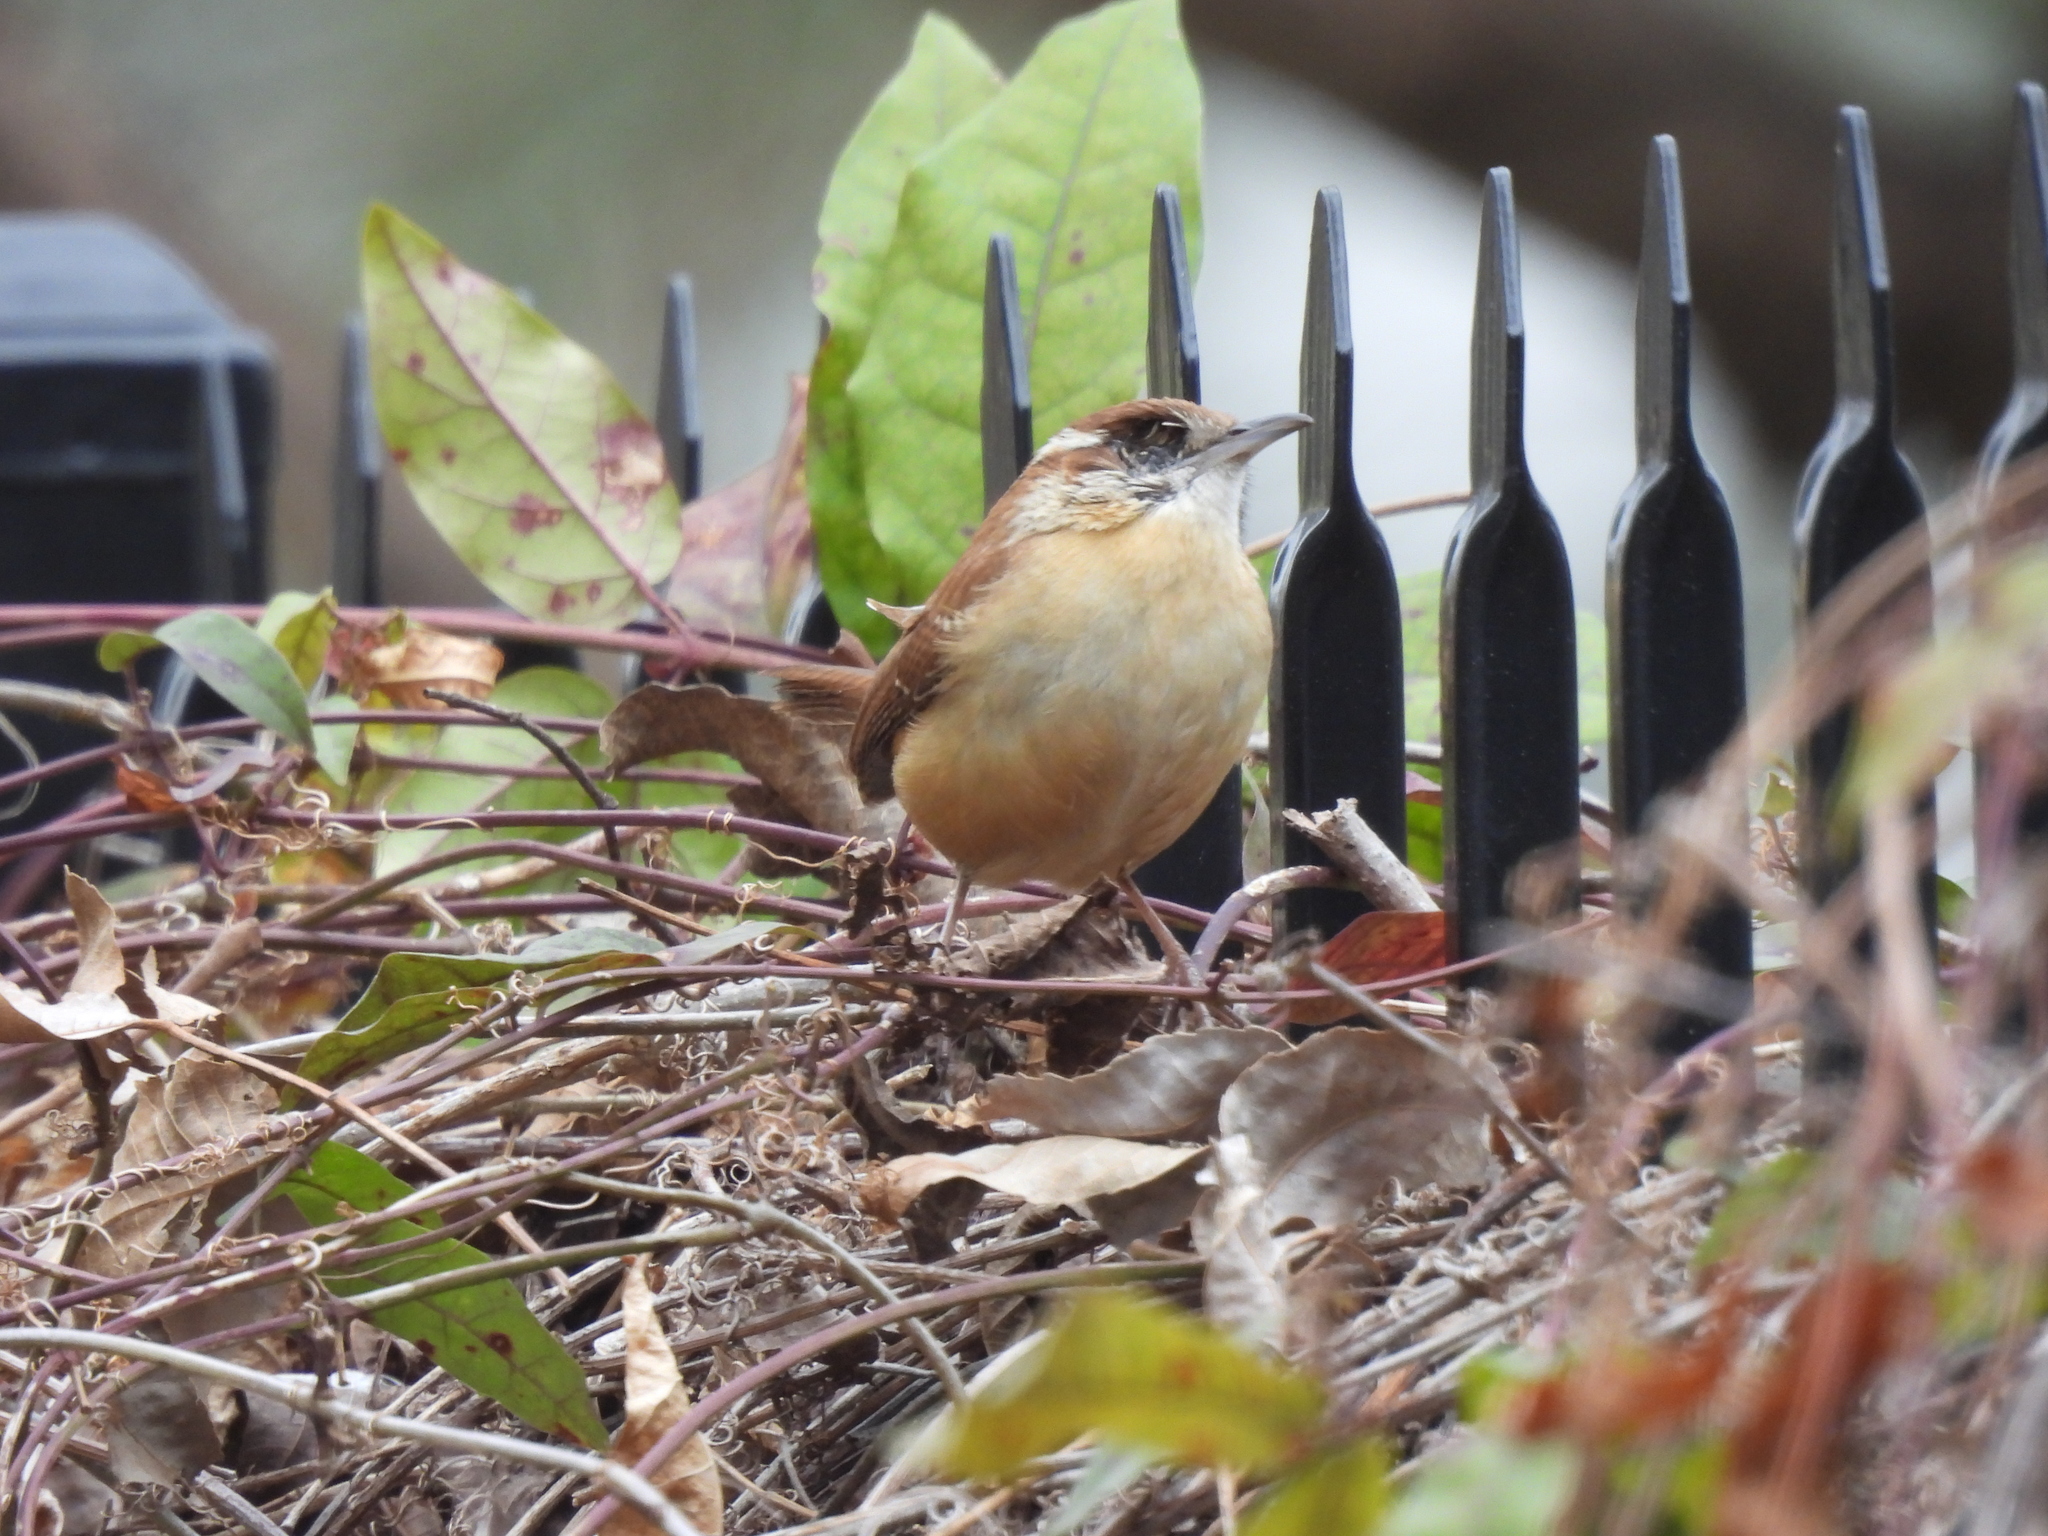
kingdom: Animalia
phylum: Chordata
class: Aves
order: Passeriformes
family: Troglodytidae
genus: Thryothorus
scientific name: Thryothorus ludovicianus
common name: Carolina wren
